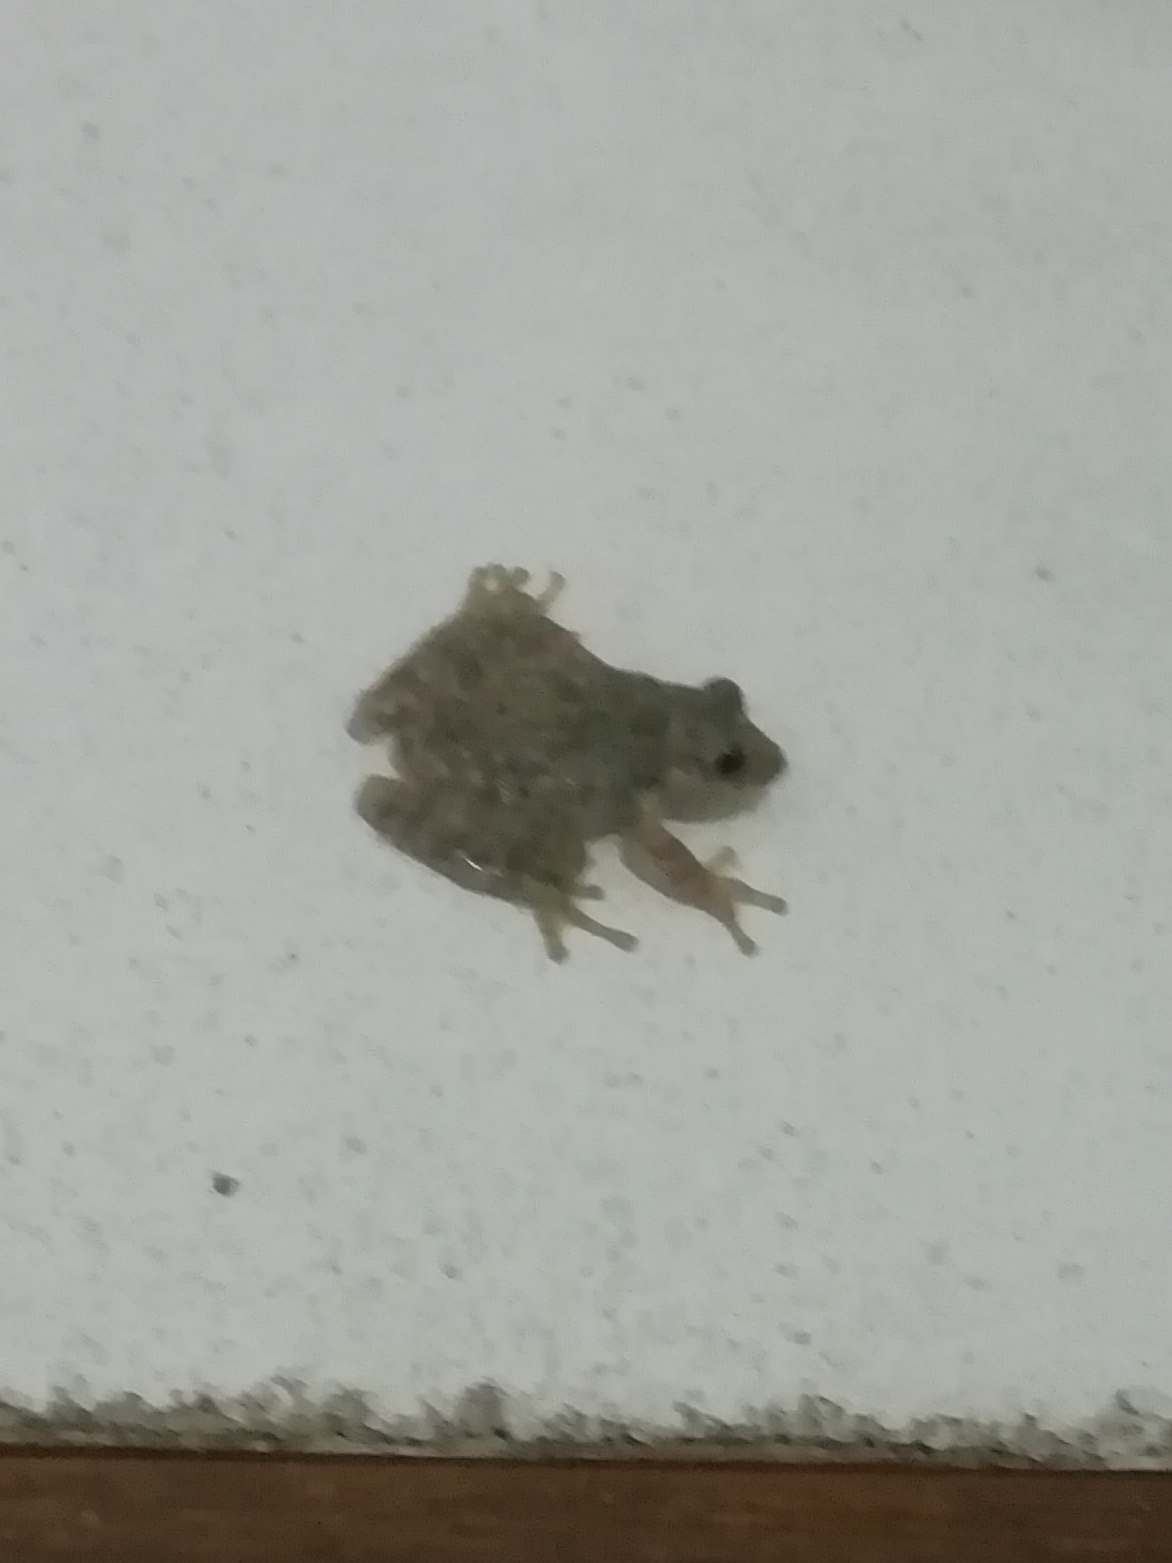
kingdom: Animalia
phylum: Chordata
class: Amphibia
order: Anura
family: Hylidae
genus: Scinax
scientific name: Scinax granulatus
